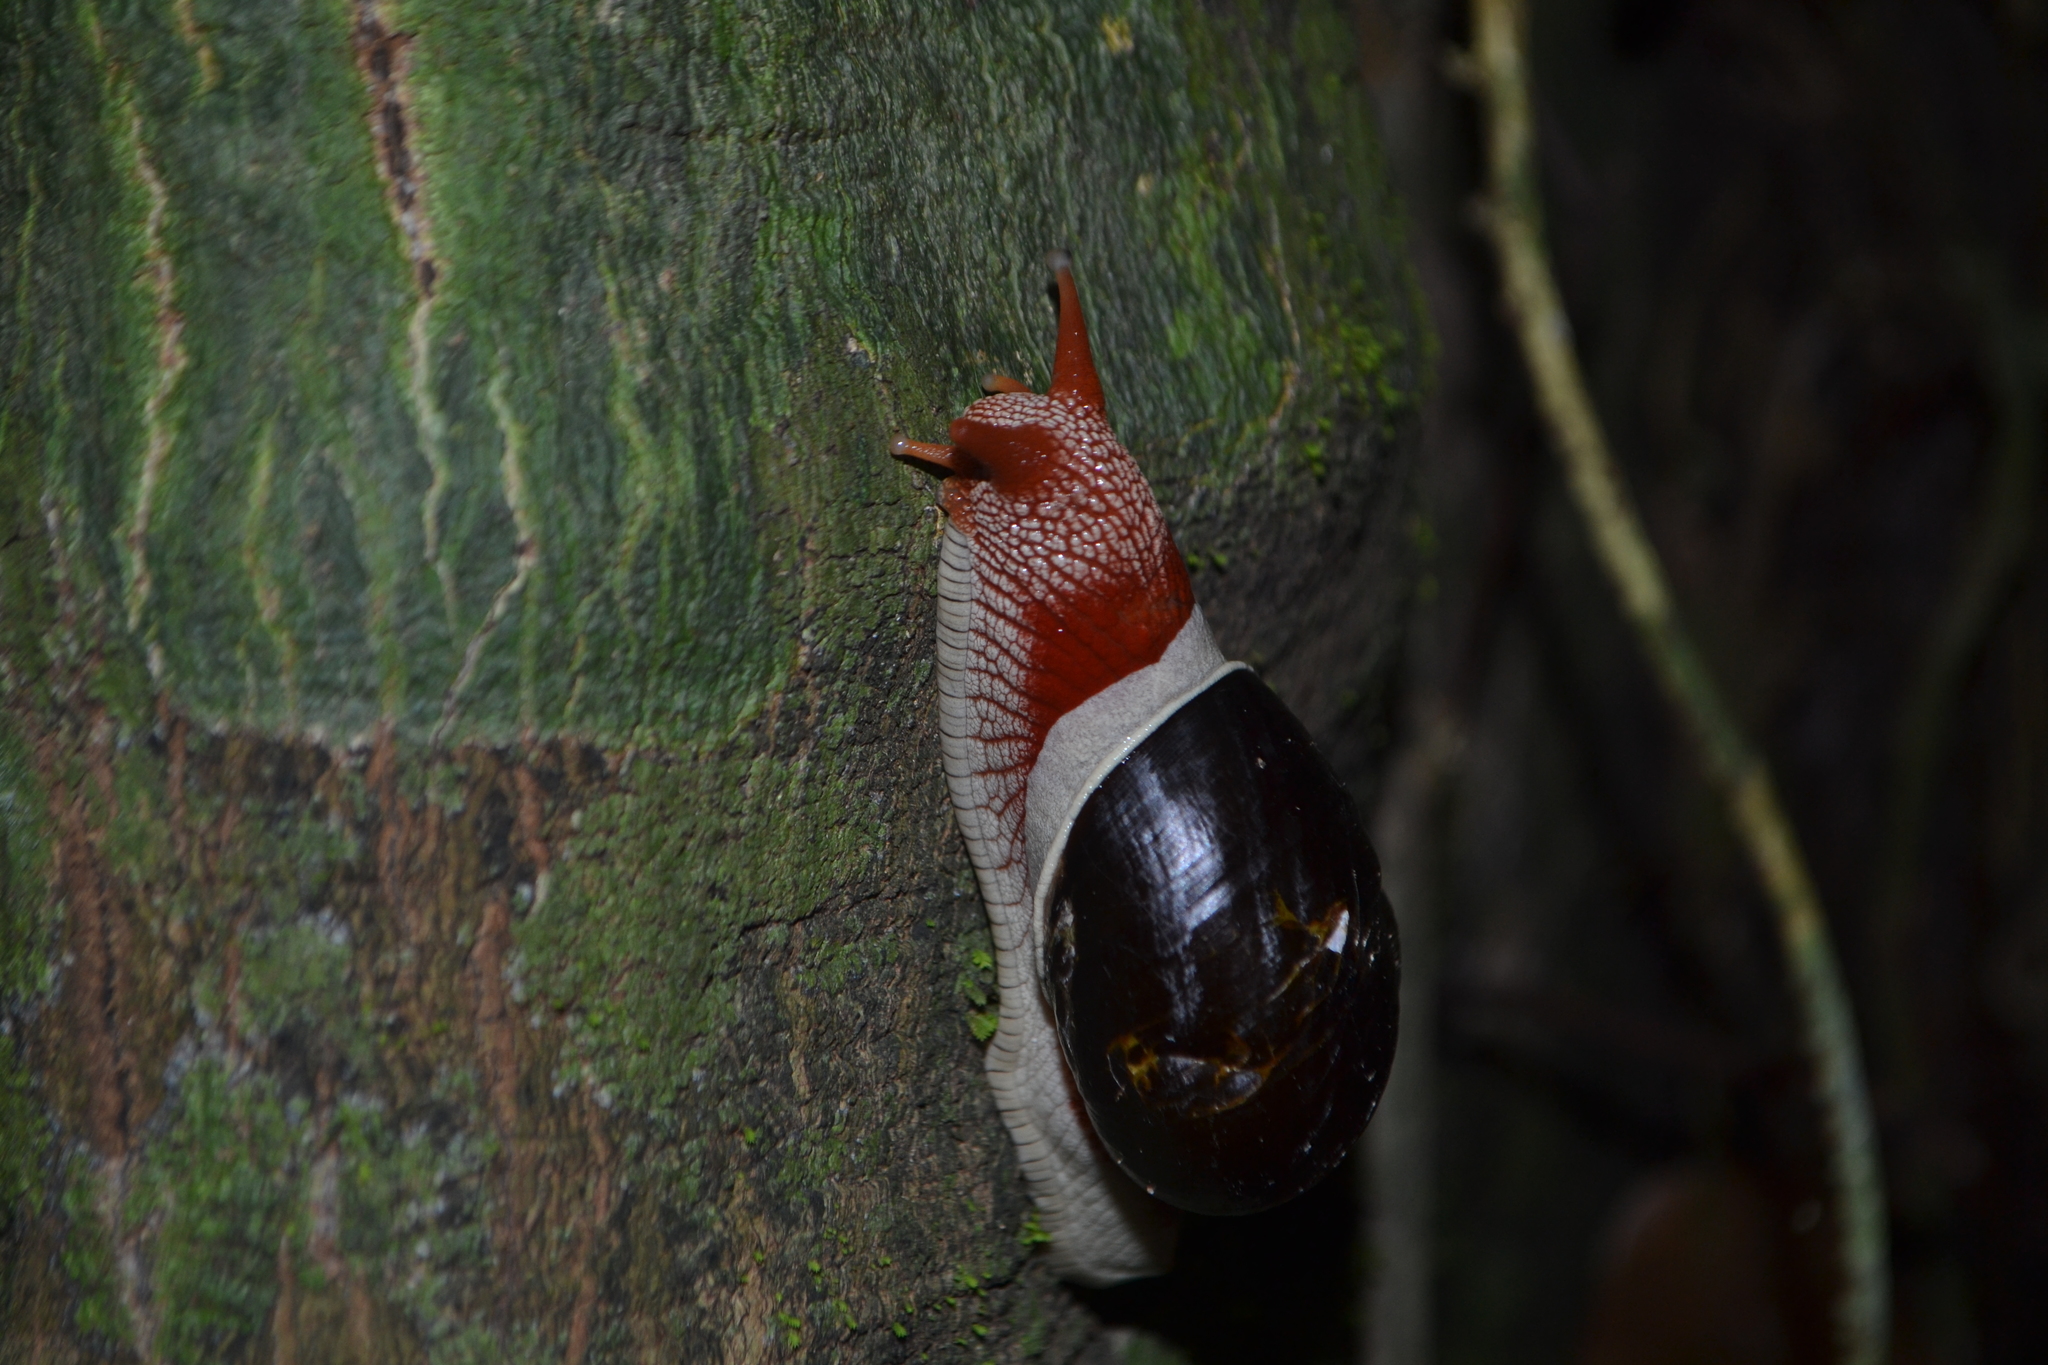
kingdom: Animalia
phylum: Mollusca
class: Gastropoda
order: Stylommatophora
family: Ariophantidae
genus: Indrella
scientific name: Indrella ampulla
